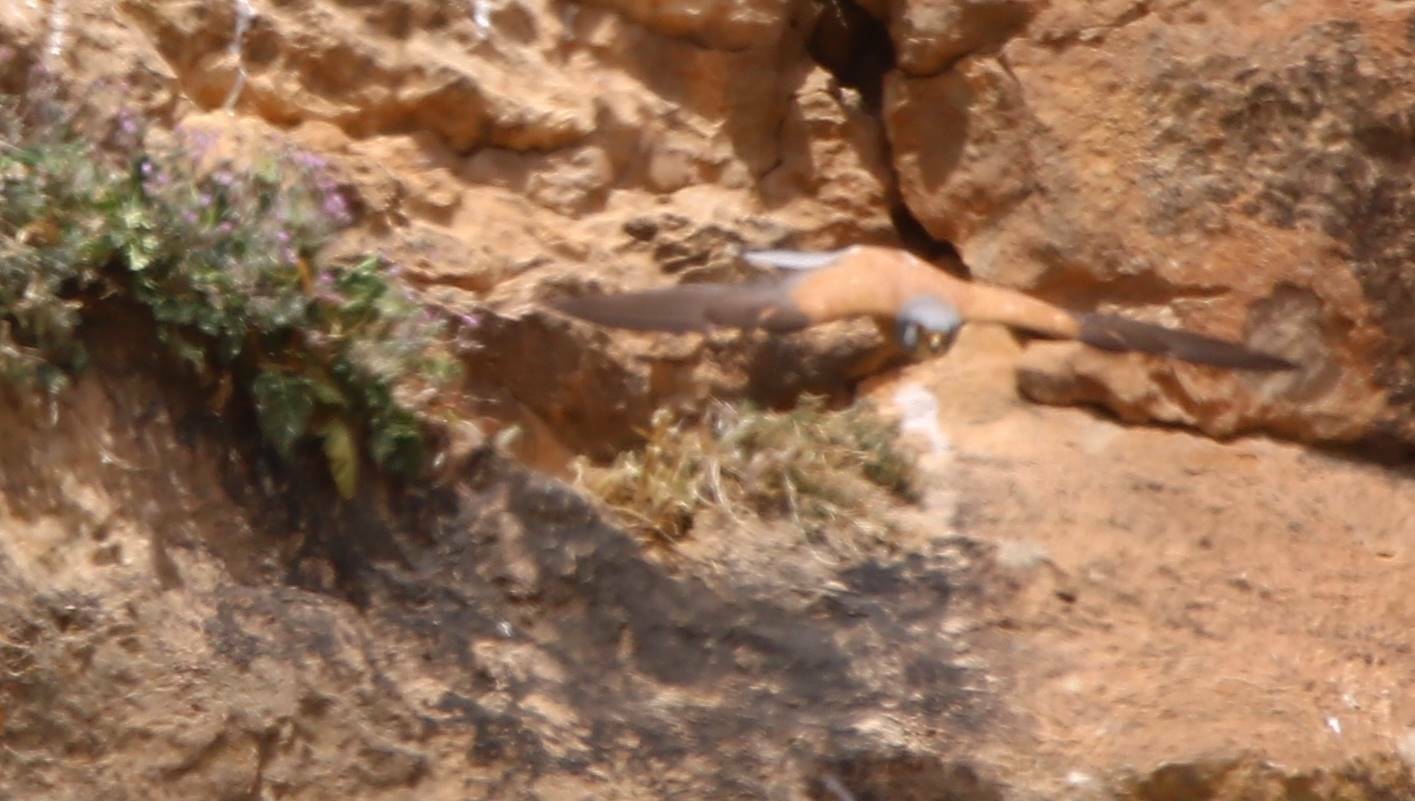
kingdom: Animalia
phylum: Chordata
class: Aves
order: Falconiformes
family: Falconidae
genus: Falco
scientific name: Falco naumanni
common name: Lesser kestrel
